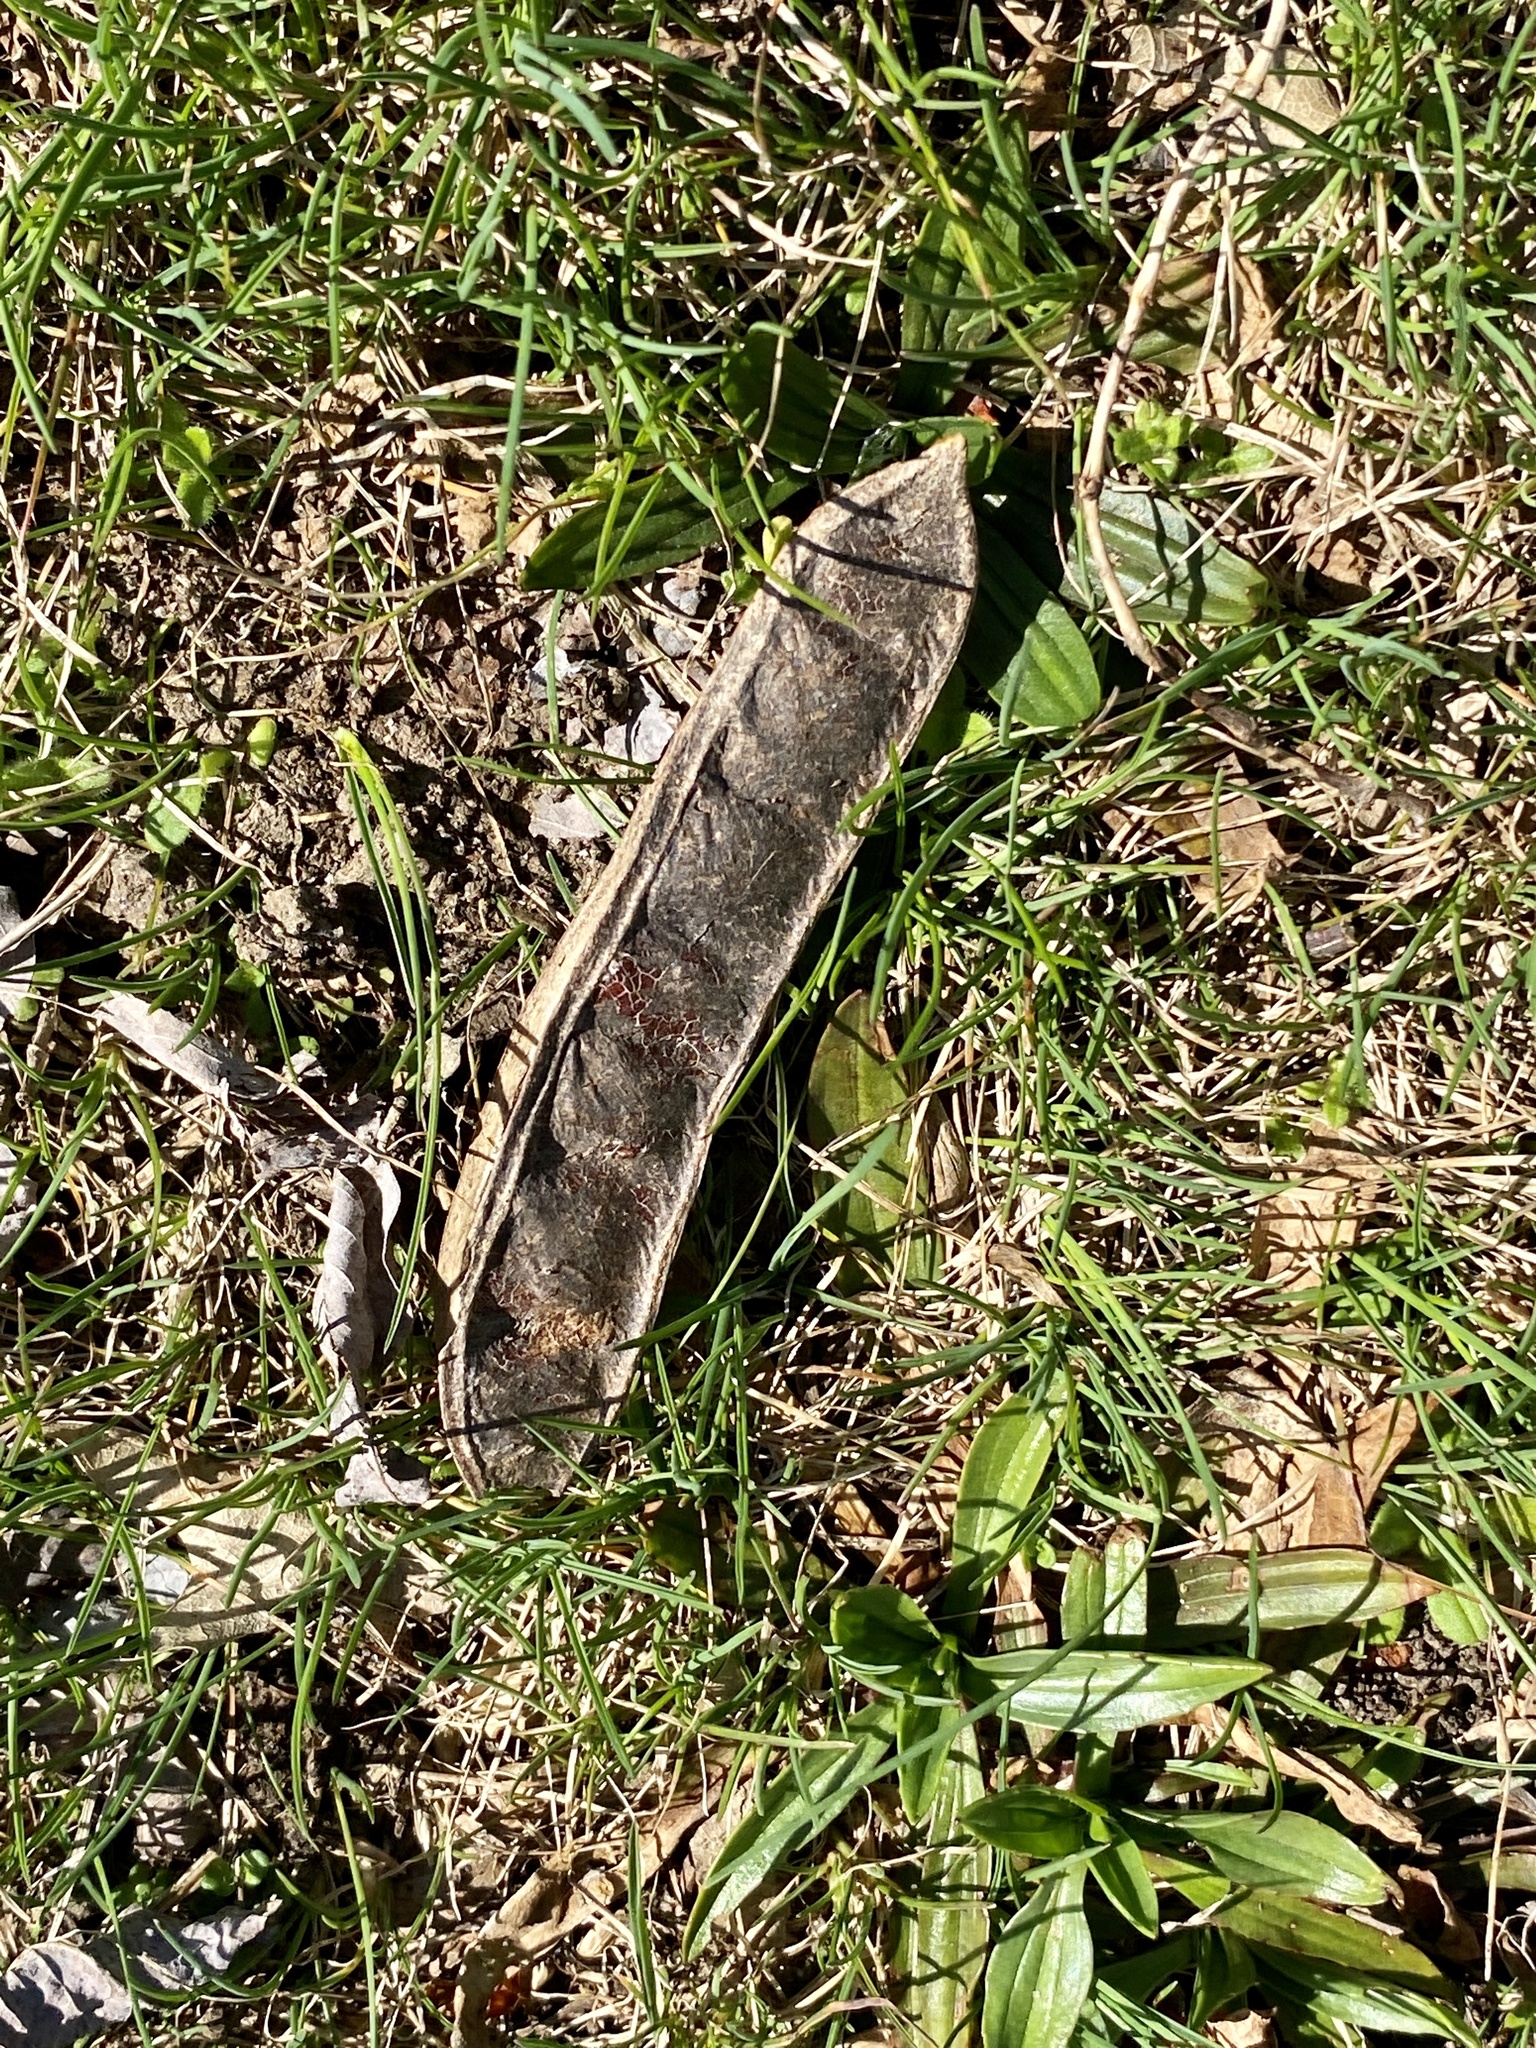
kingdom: Plantae
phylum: Tracheophyta
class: Magnoliopsida
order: Fabales
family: Fabaceae
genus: Robinia
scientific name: Robinia pseudoacacia
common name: Black locust
